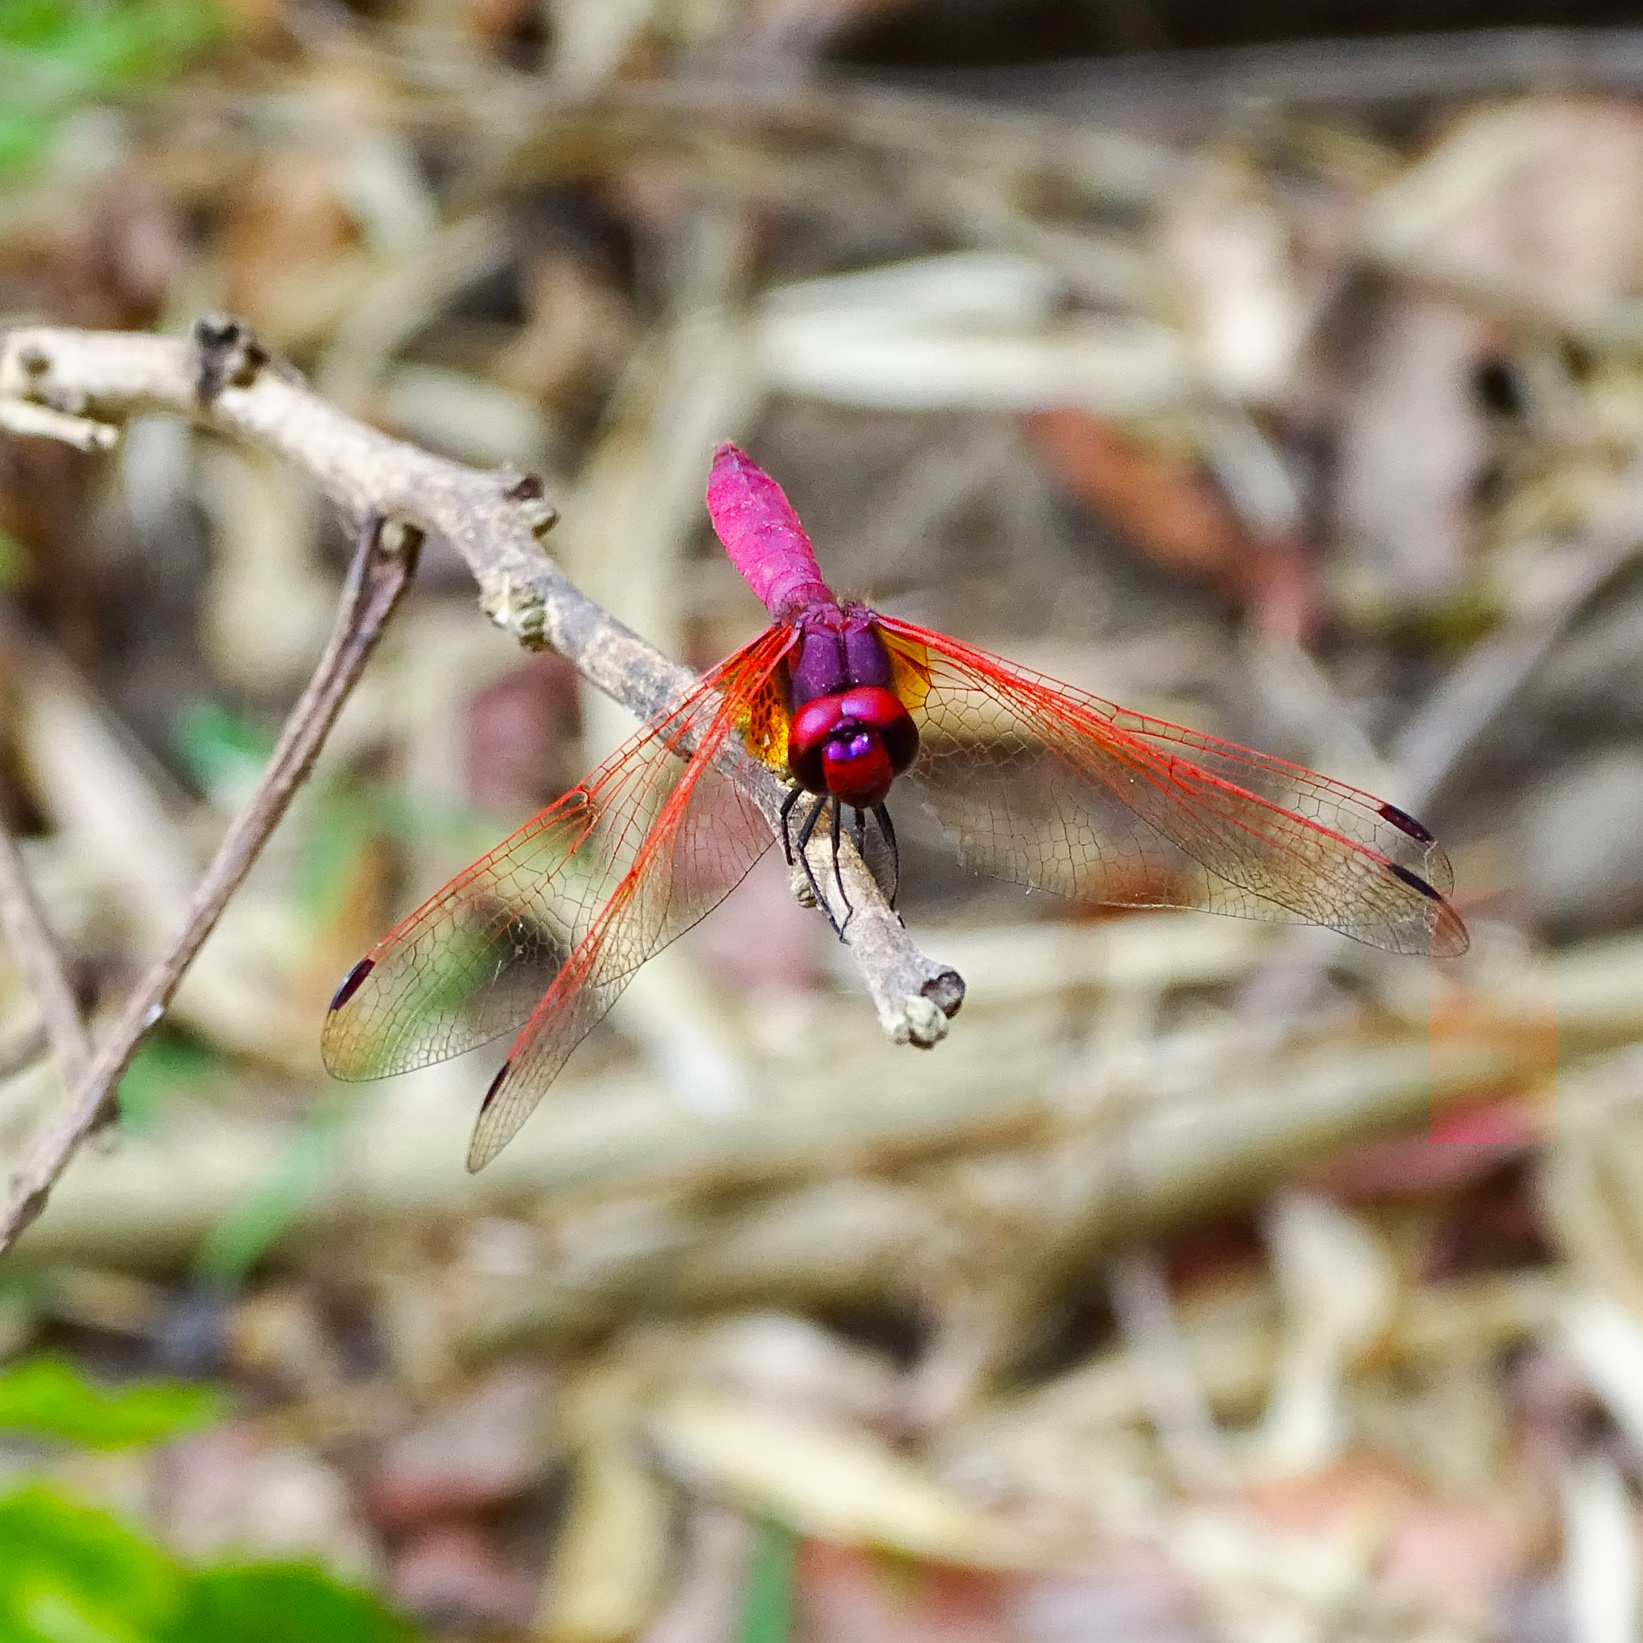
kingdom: Animalia
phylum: Arthropoda
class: Insecta
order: Odonata
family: Libellulidae
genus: Trithemis
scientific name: Trithemis aurora
